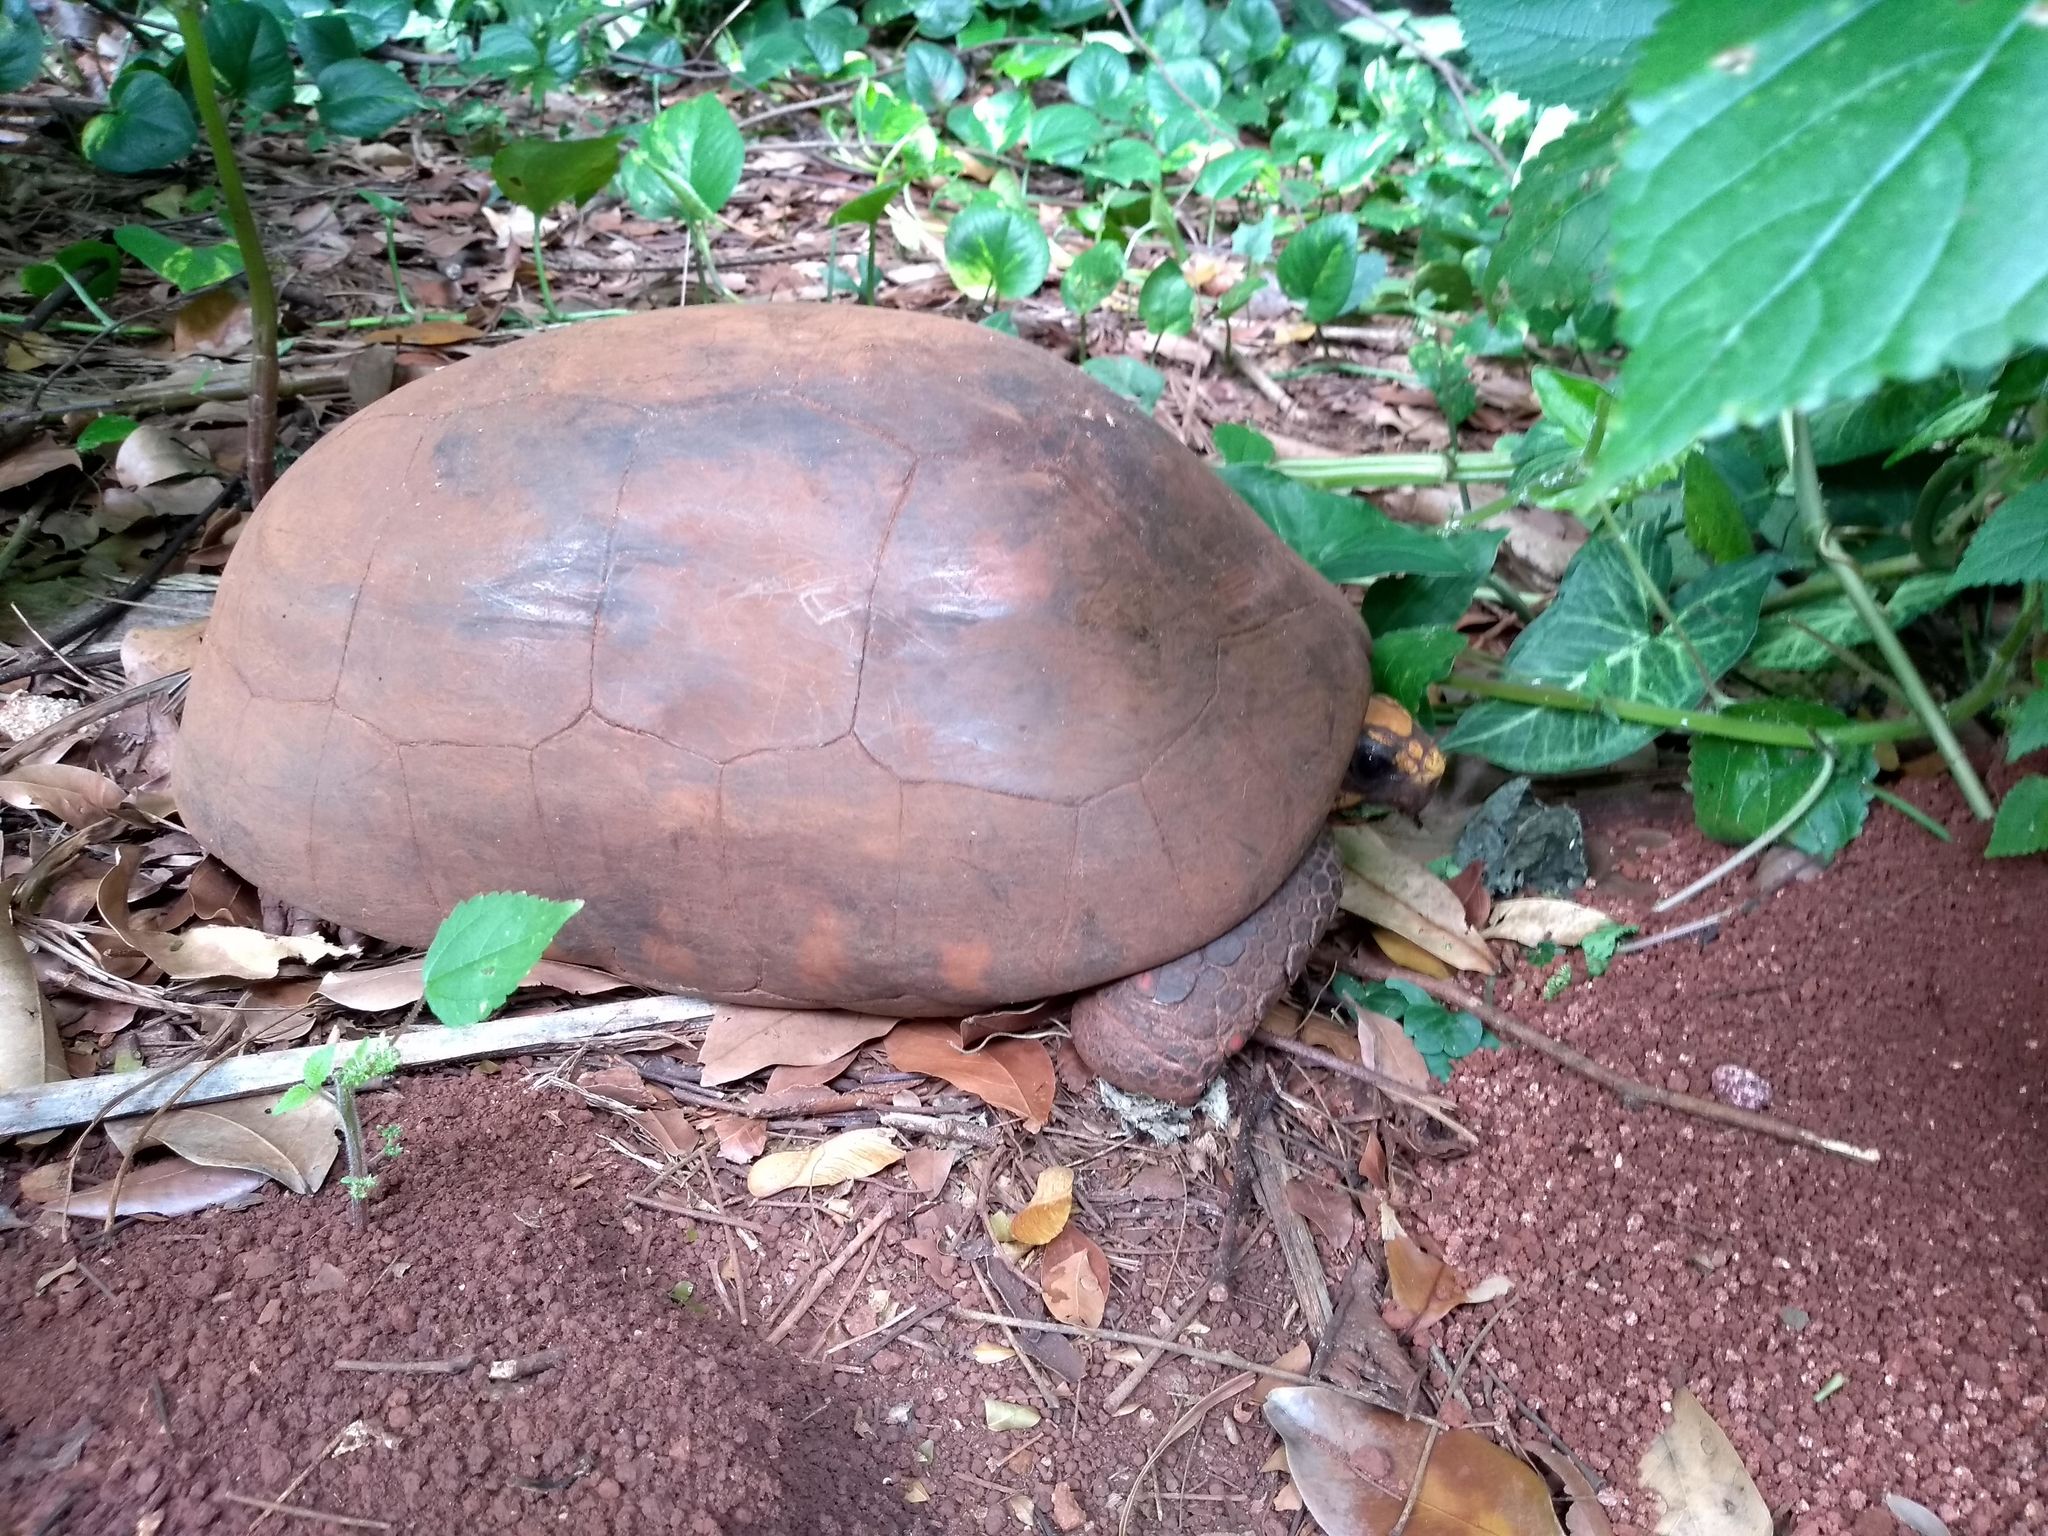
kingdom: Animalia
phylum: Chordata
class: Testudines
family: Testudinidae
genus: Chelonoidis
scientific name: Chelonoidis carbonarius
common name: Red-footed tortoise
